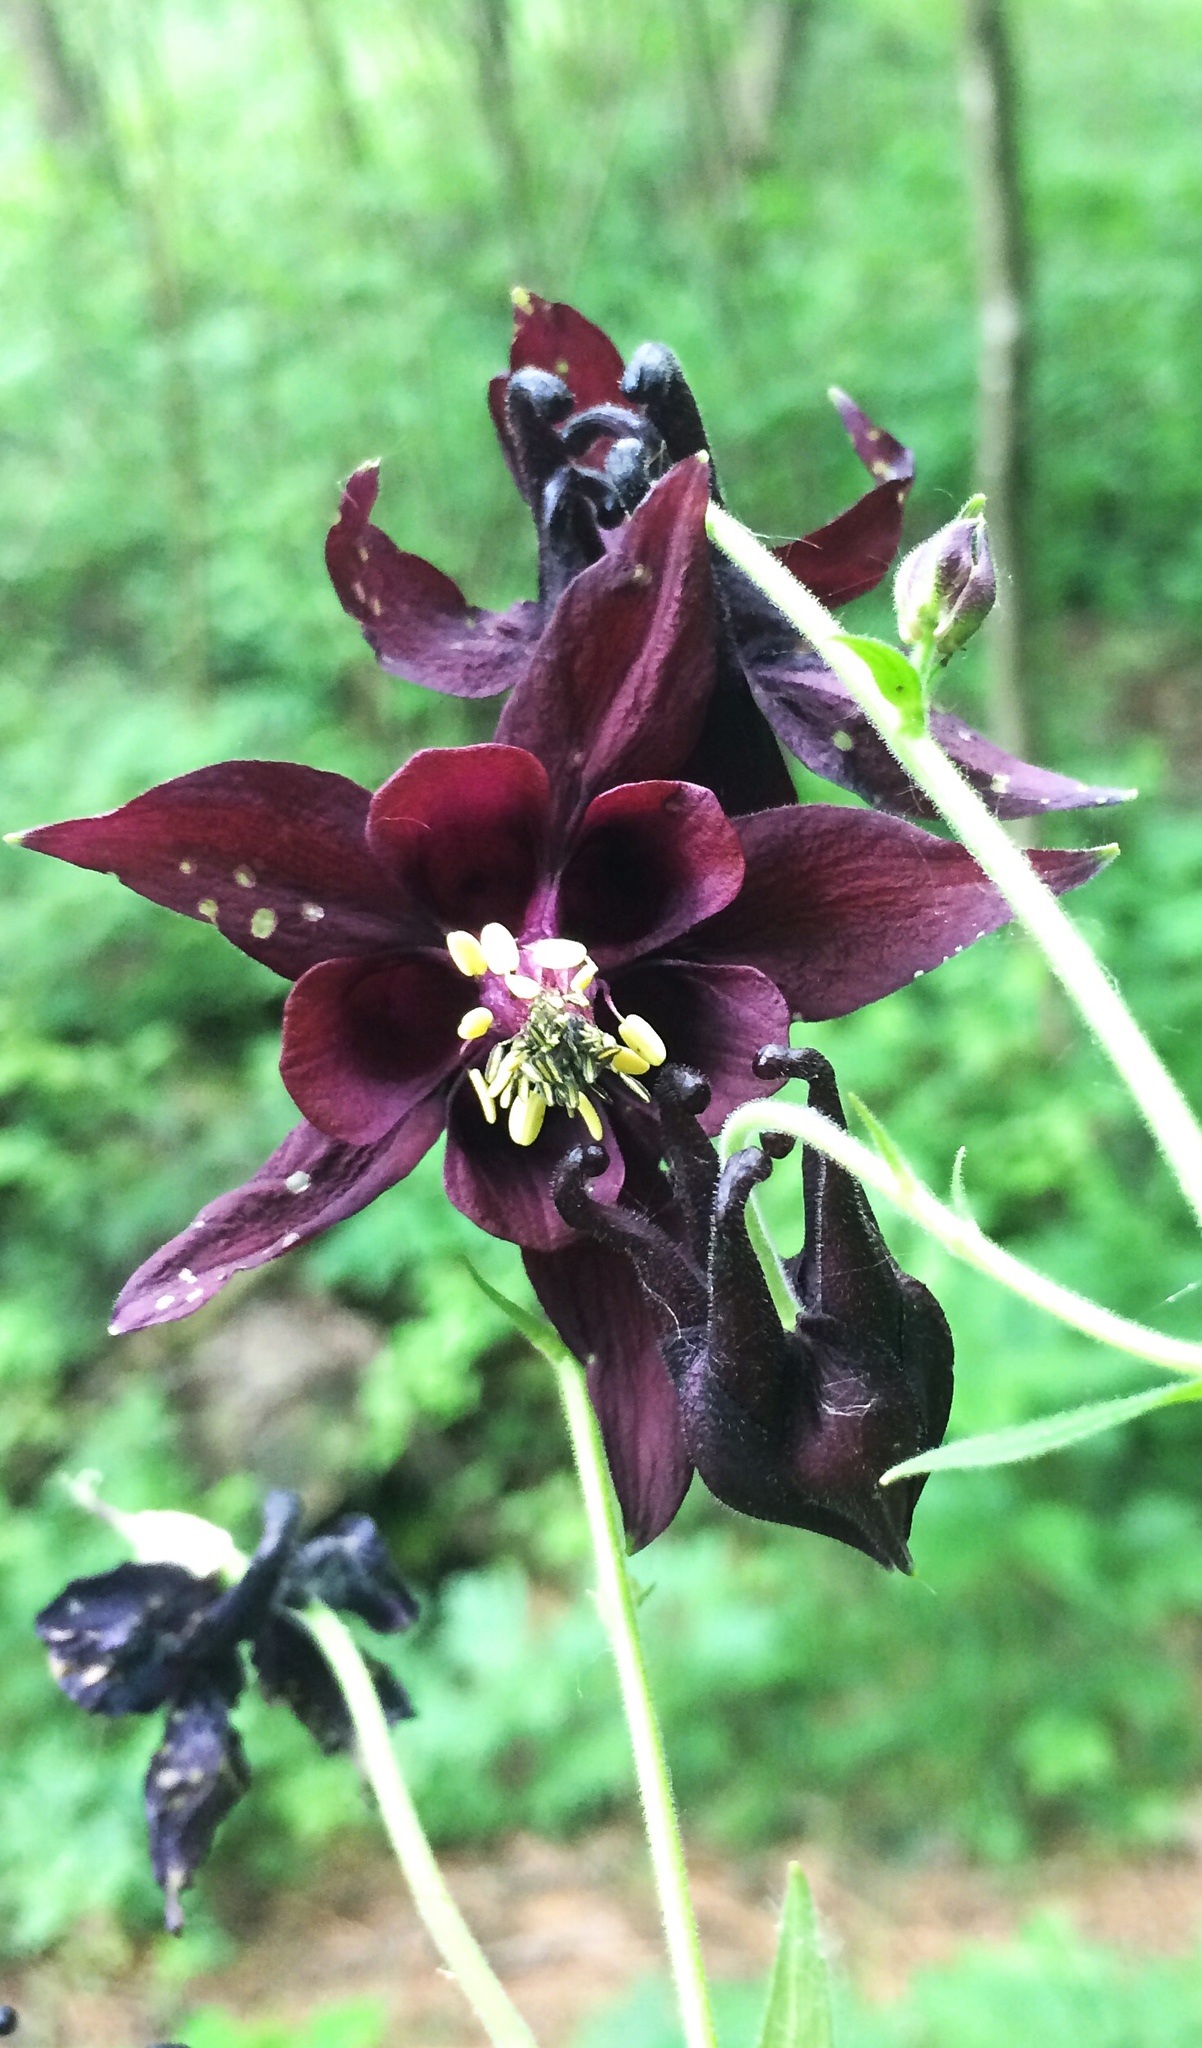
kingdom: Plantae
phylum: Tracheophyta
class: Magnoliopsida
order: Ranunculales
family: Ranunculaceae
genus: Aquilegia
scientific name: Aquilegia atrata
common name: Dark columbine
